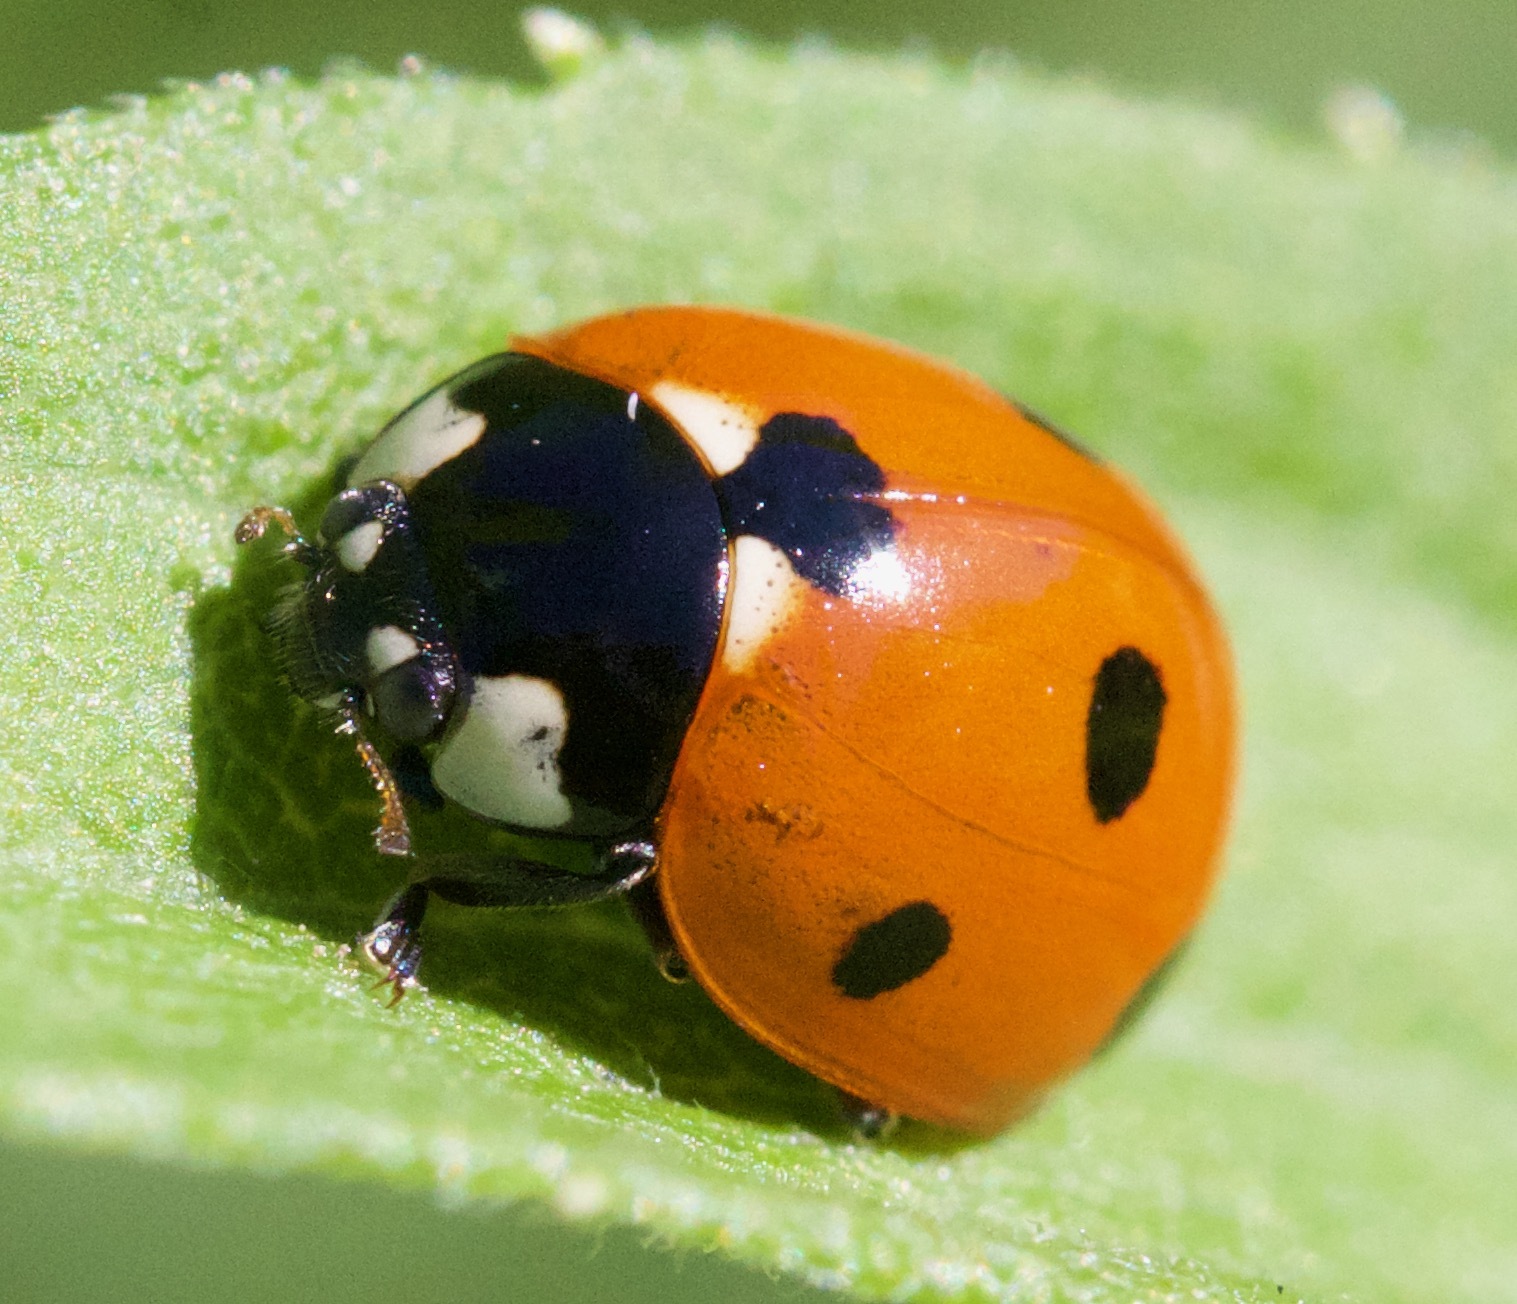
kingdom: Animalia
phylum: Arthropoda
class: Insecta
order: Coleoptera
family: Coccinellidae
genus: Coccinella
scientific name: Coccinella septempunctata
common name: Sevenspotted lady beetle
